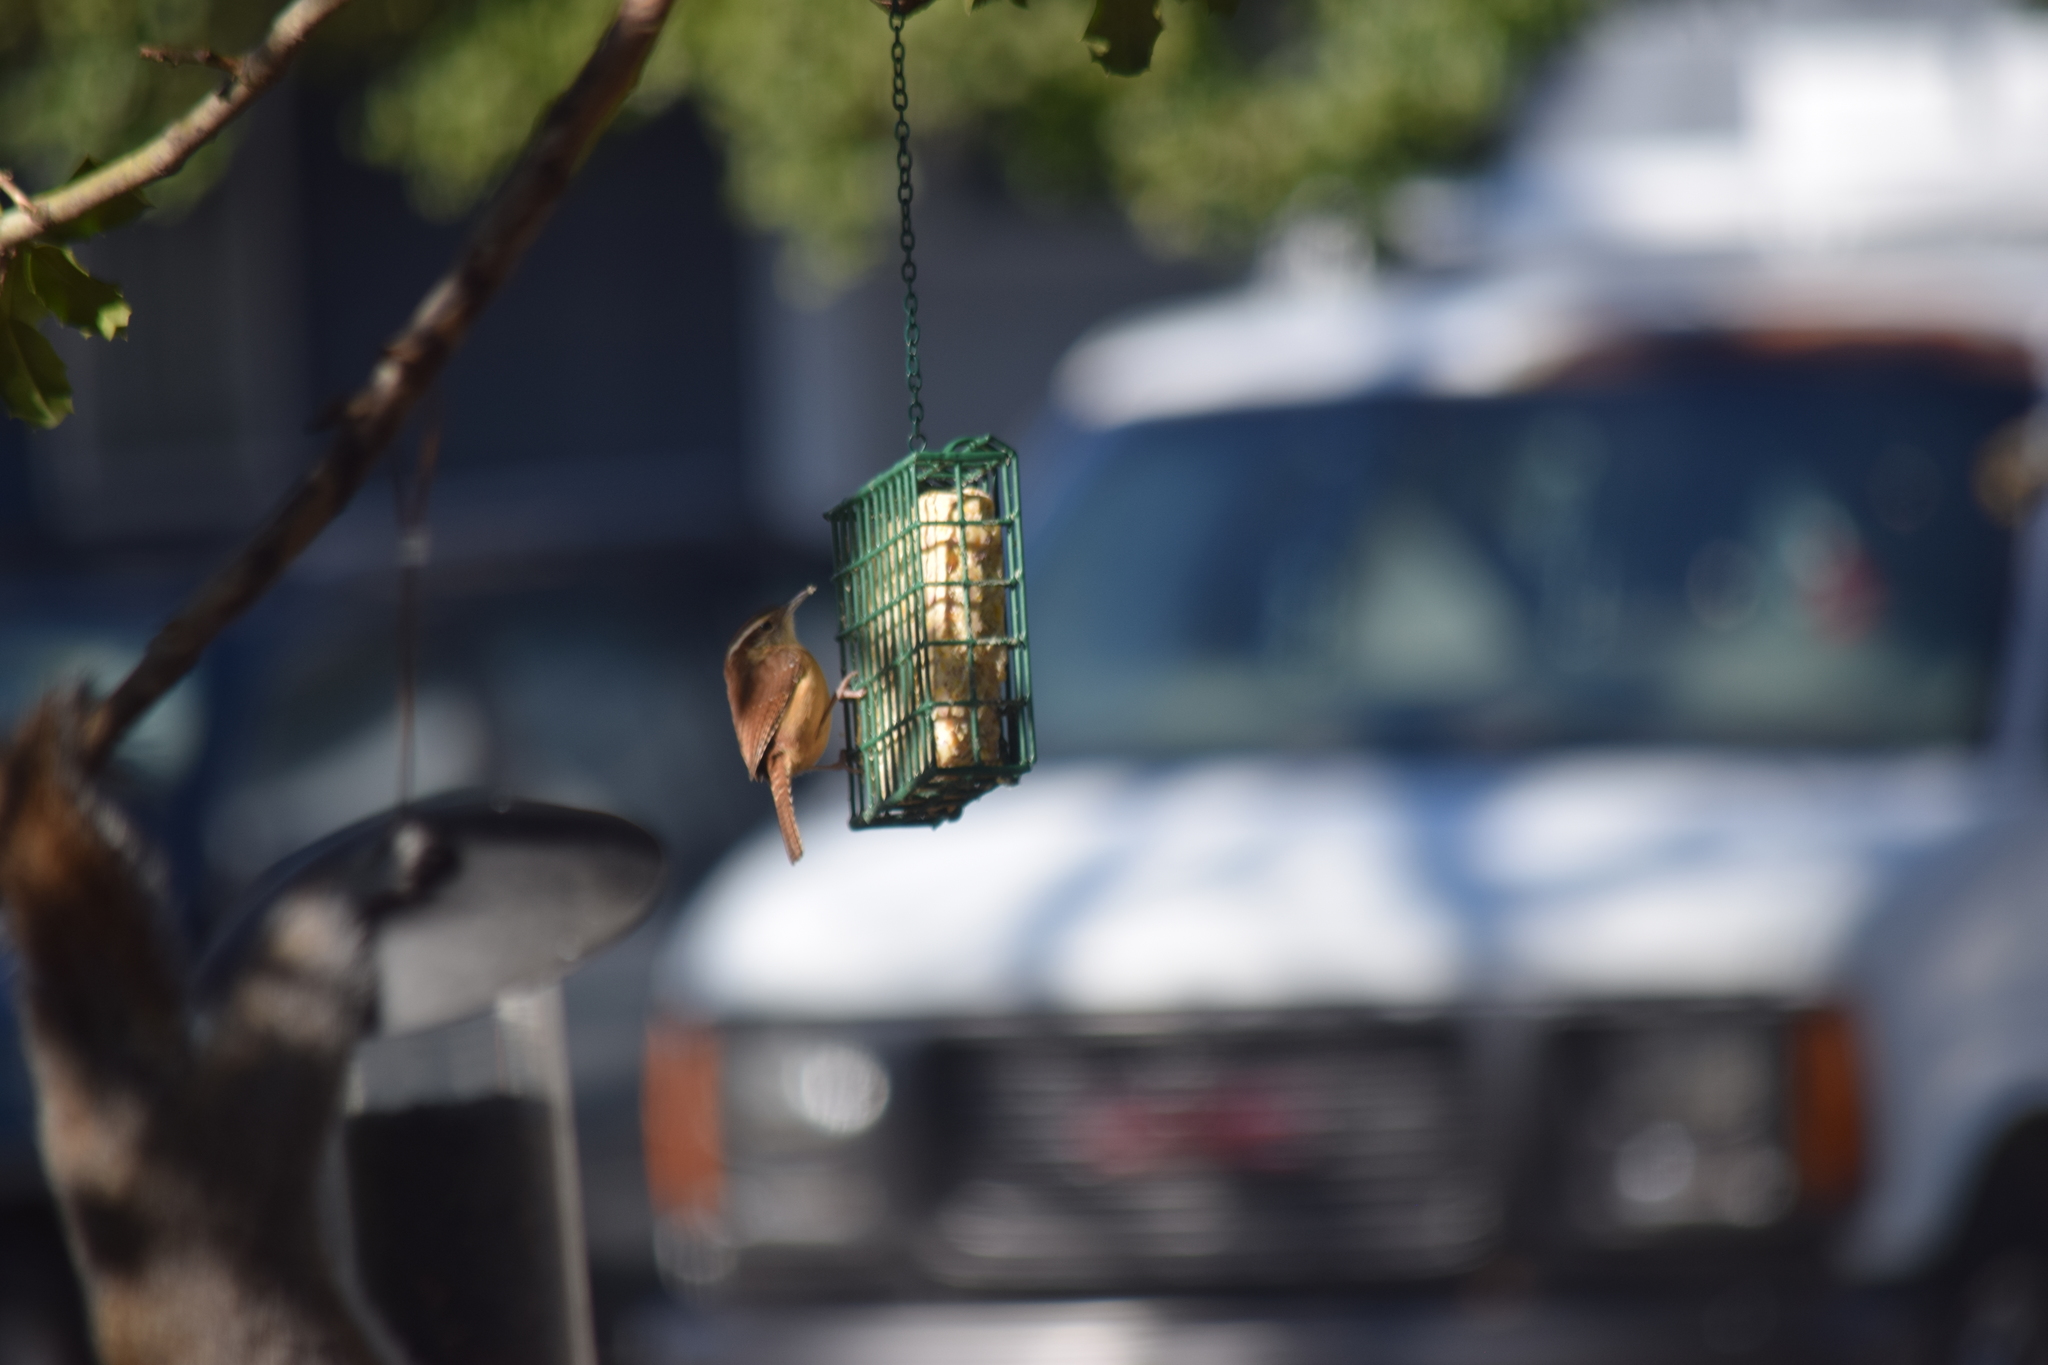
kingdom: Animalia
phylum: Chordata
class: Aves
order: Passeriformes
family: Troglodytidae
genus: Thryothorus
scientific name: Thryothorus ludovicianus
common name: Carolina wren
